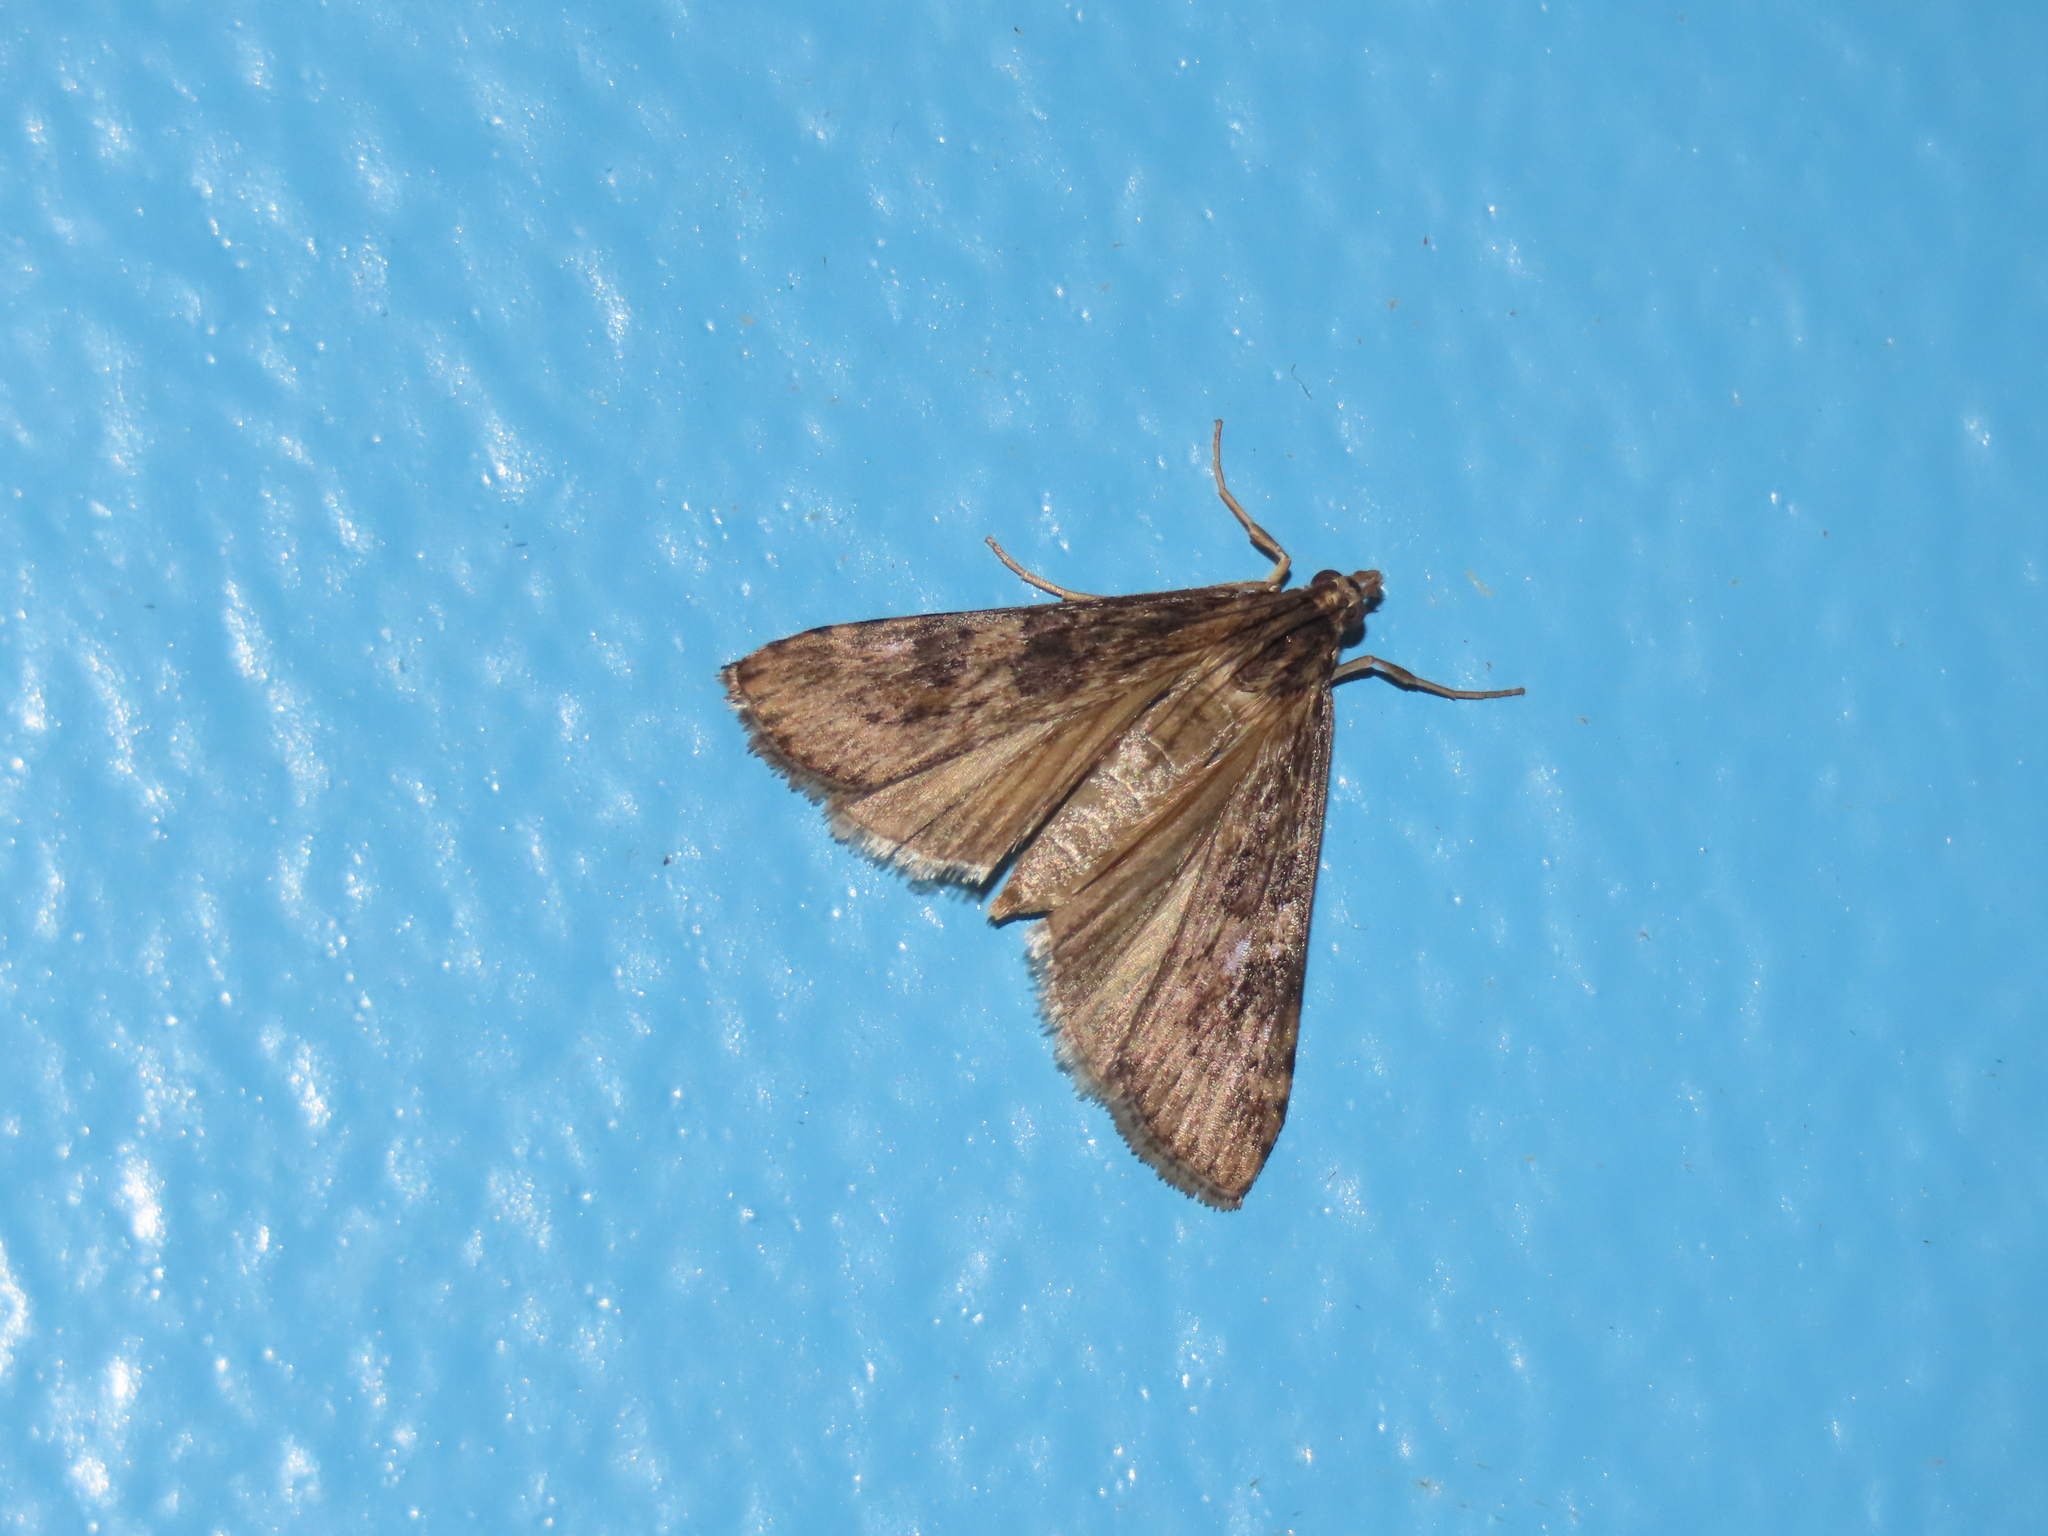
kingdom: Animalia
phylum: Arthropoda
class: Insecta
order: Lepidoptera
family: Crambidae
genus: Nomophila
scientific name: Nomophila nearctica
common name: American rush veneer
